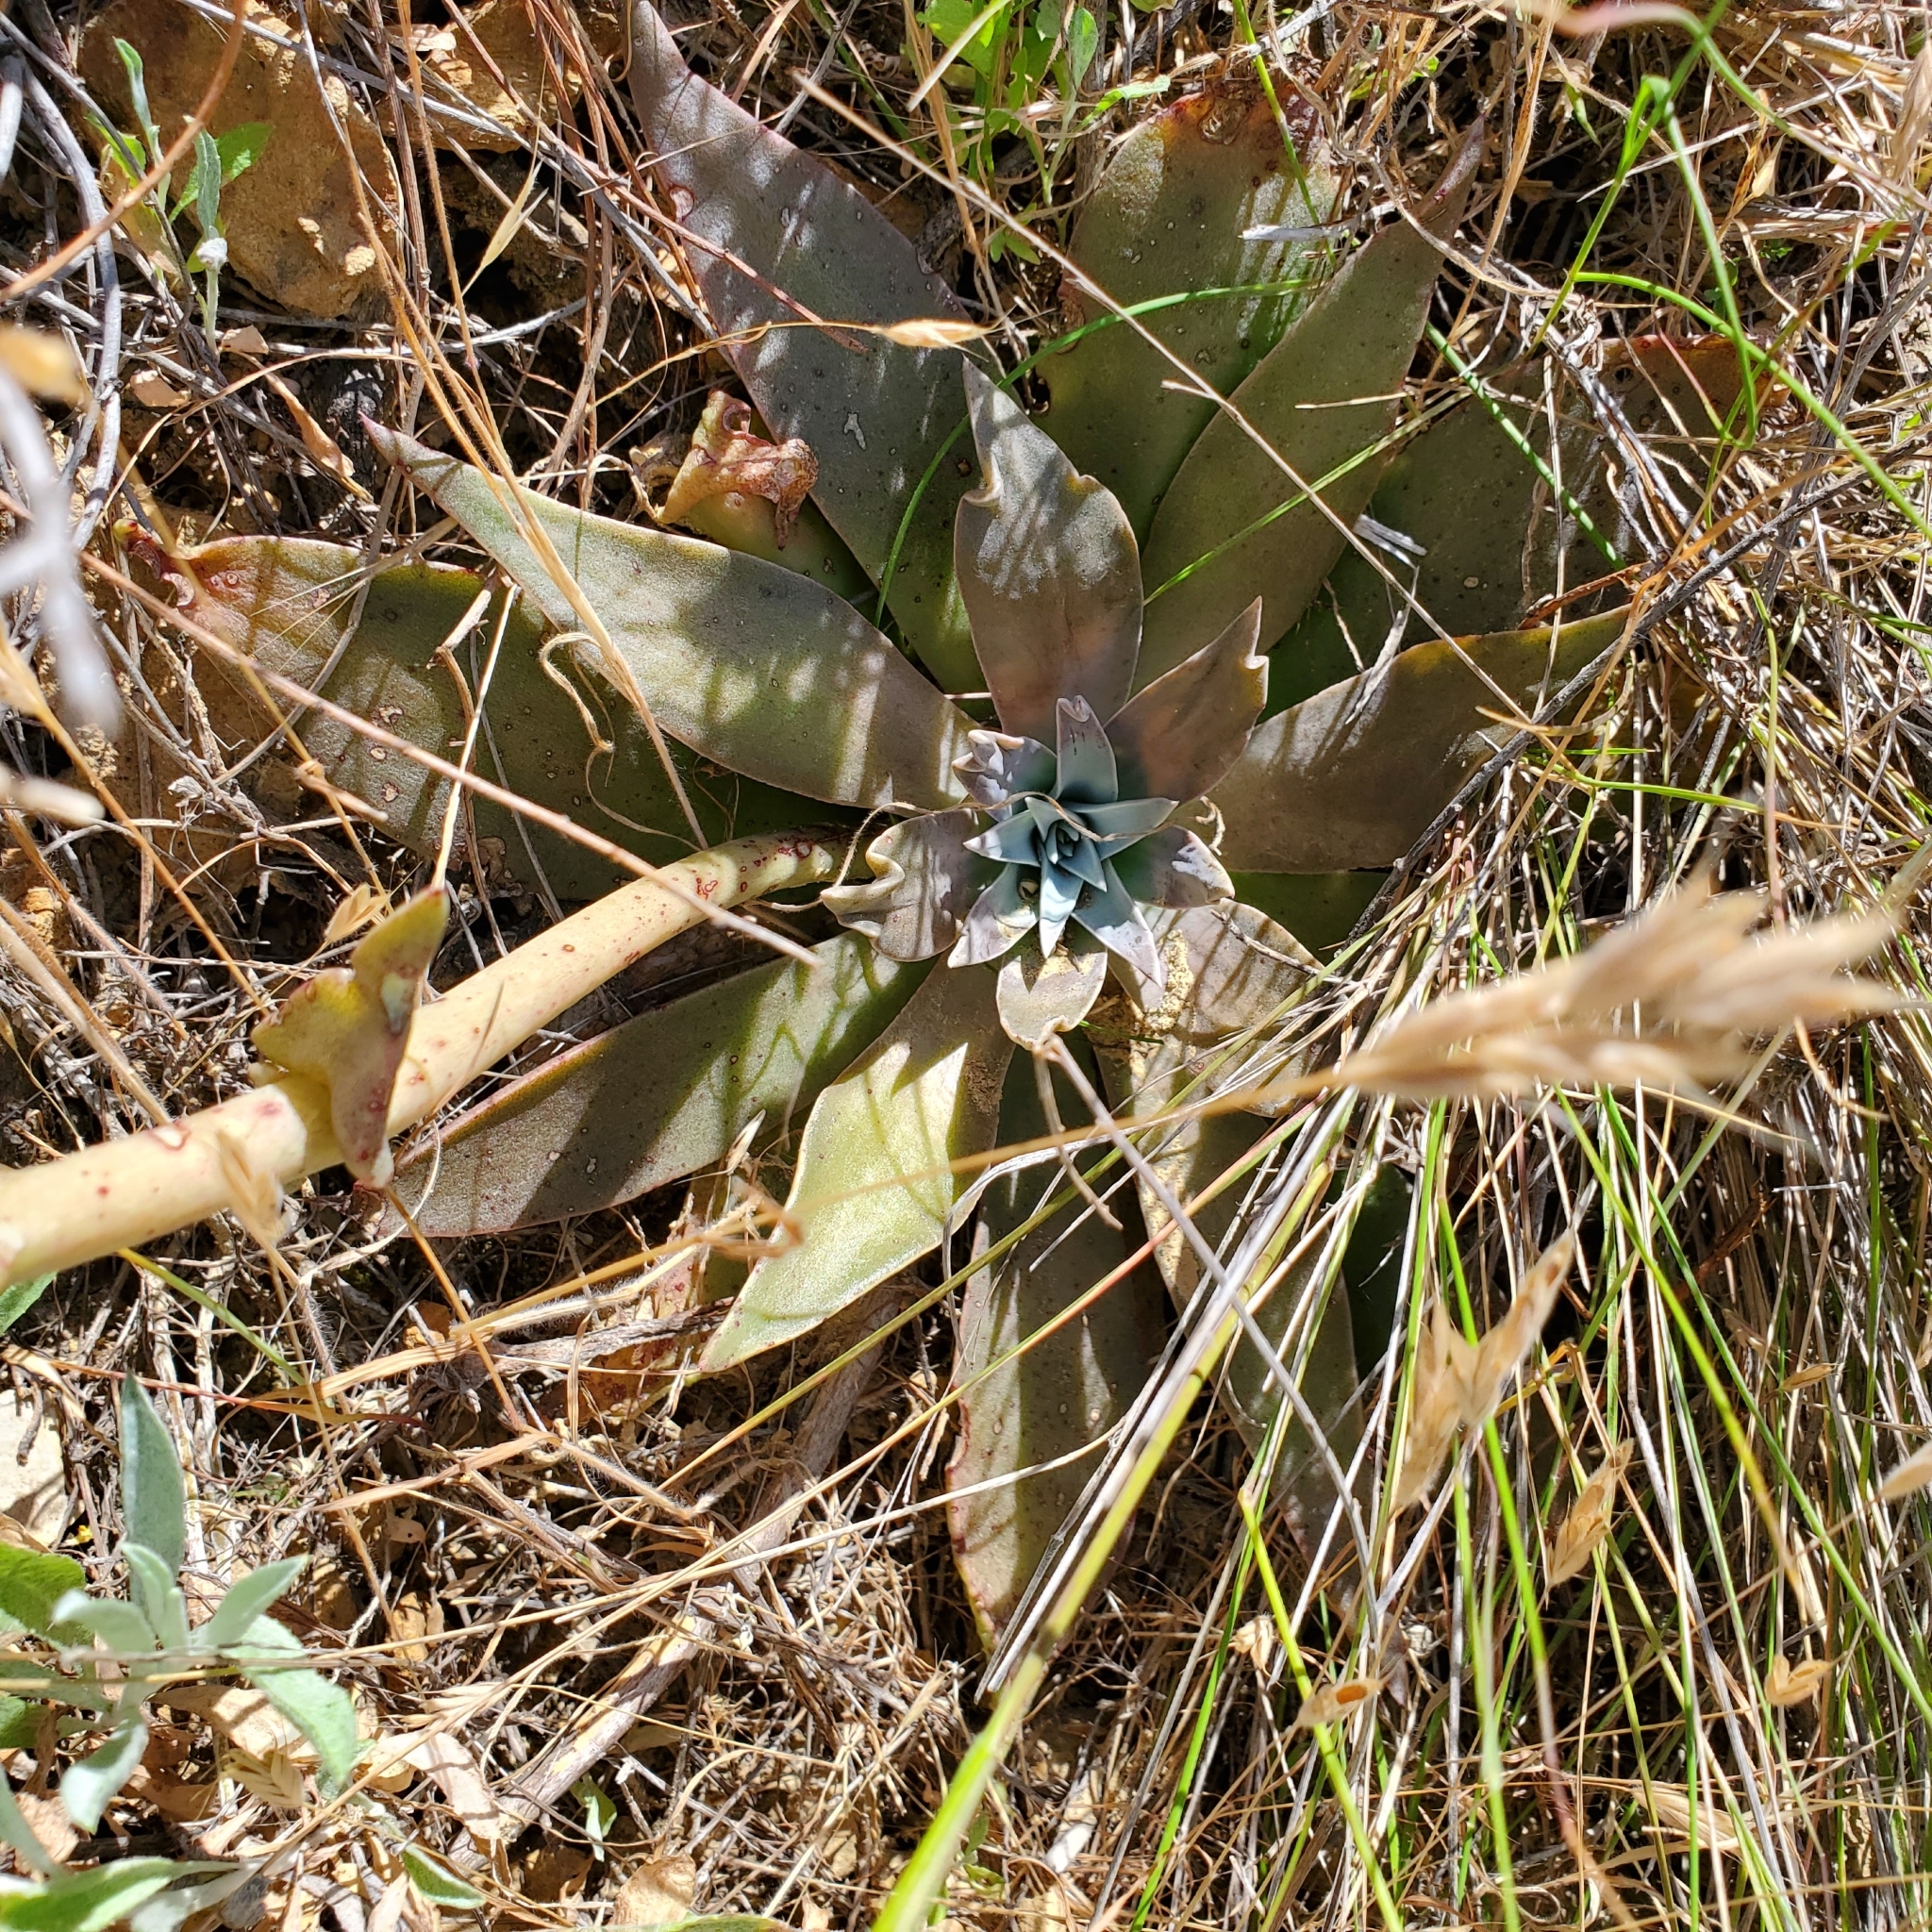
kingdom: Plantae
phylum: Tracheophyta
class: Magnoliopsida
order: Saxifragales
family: Crassulaceae
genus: Dudleya
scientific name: Dudleya lanceolata
